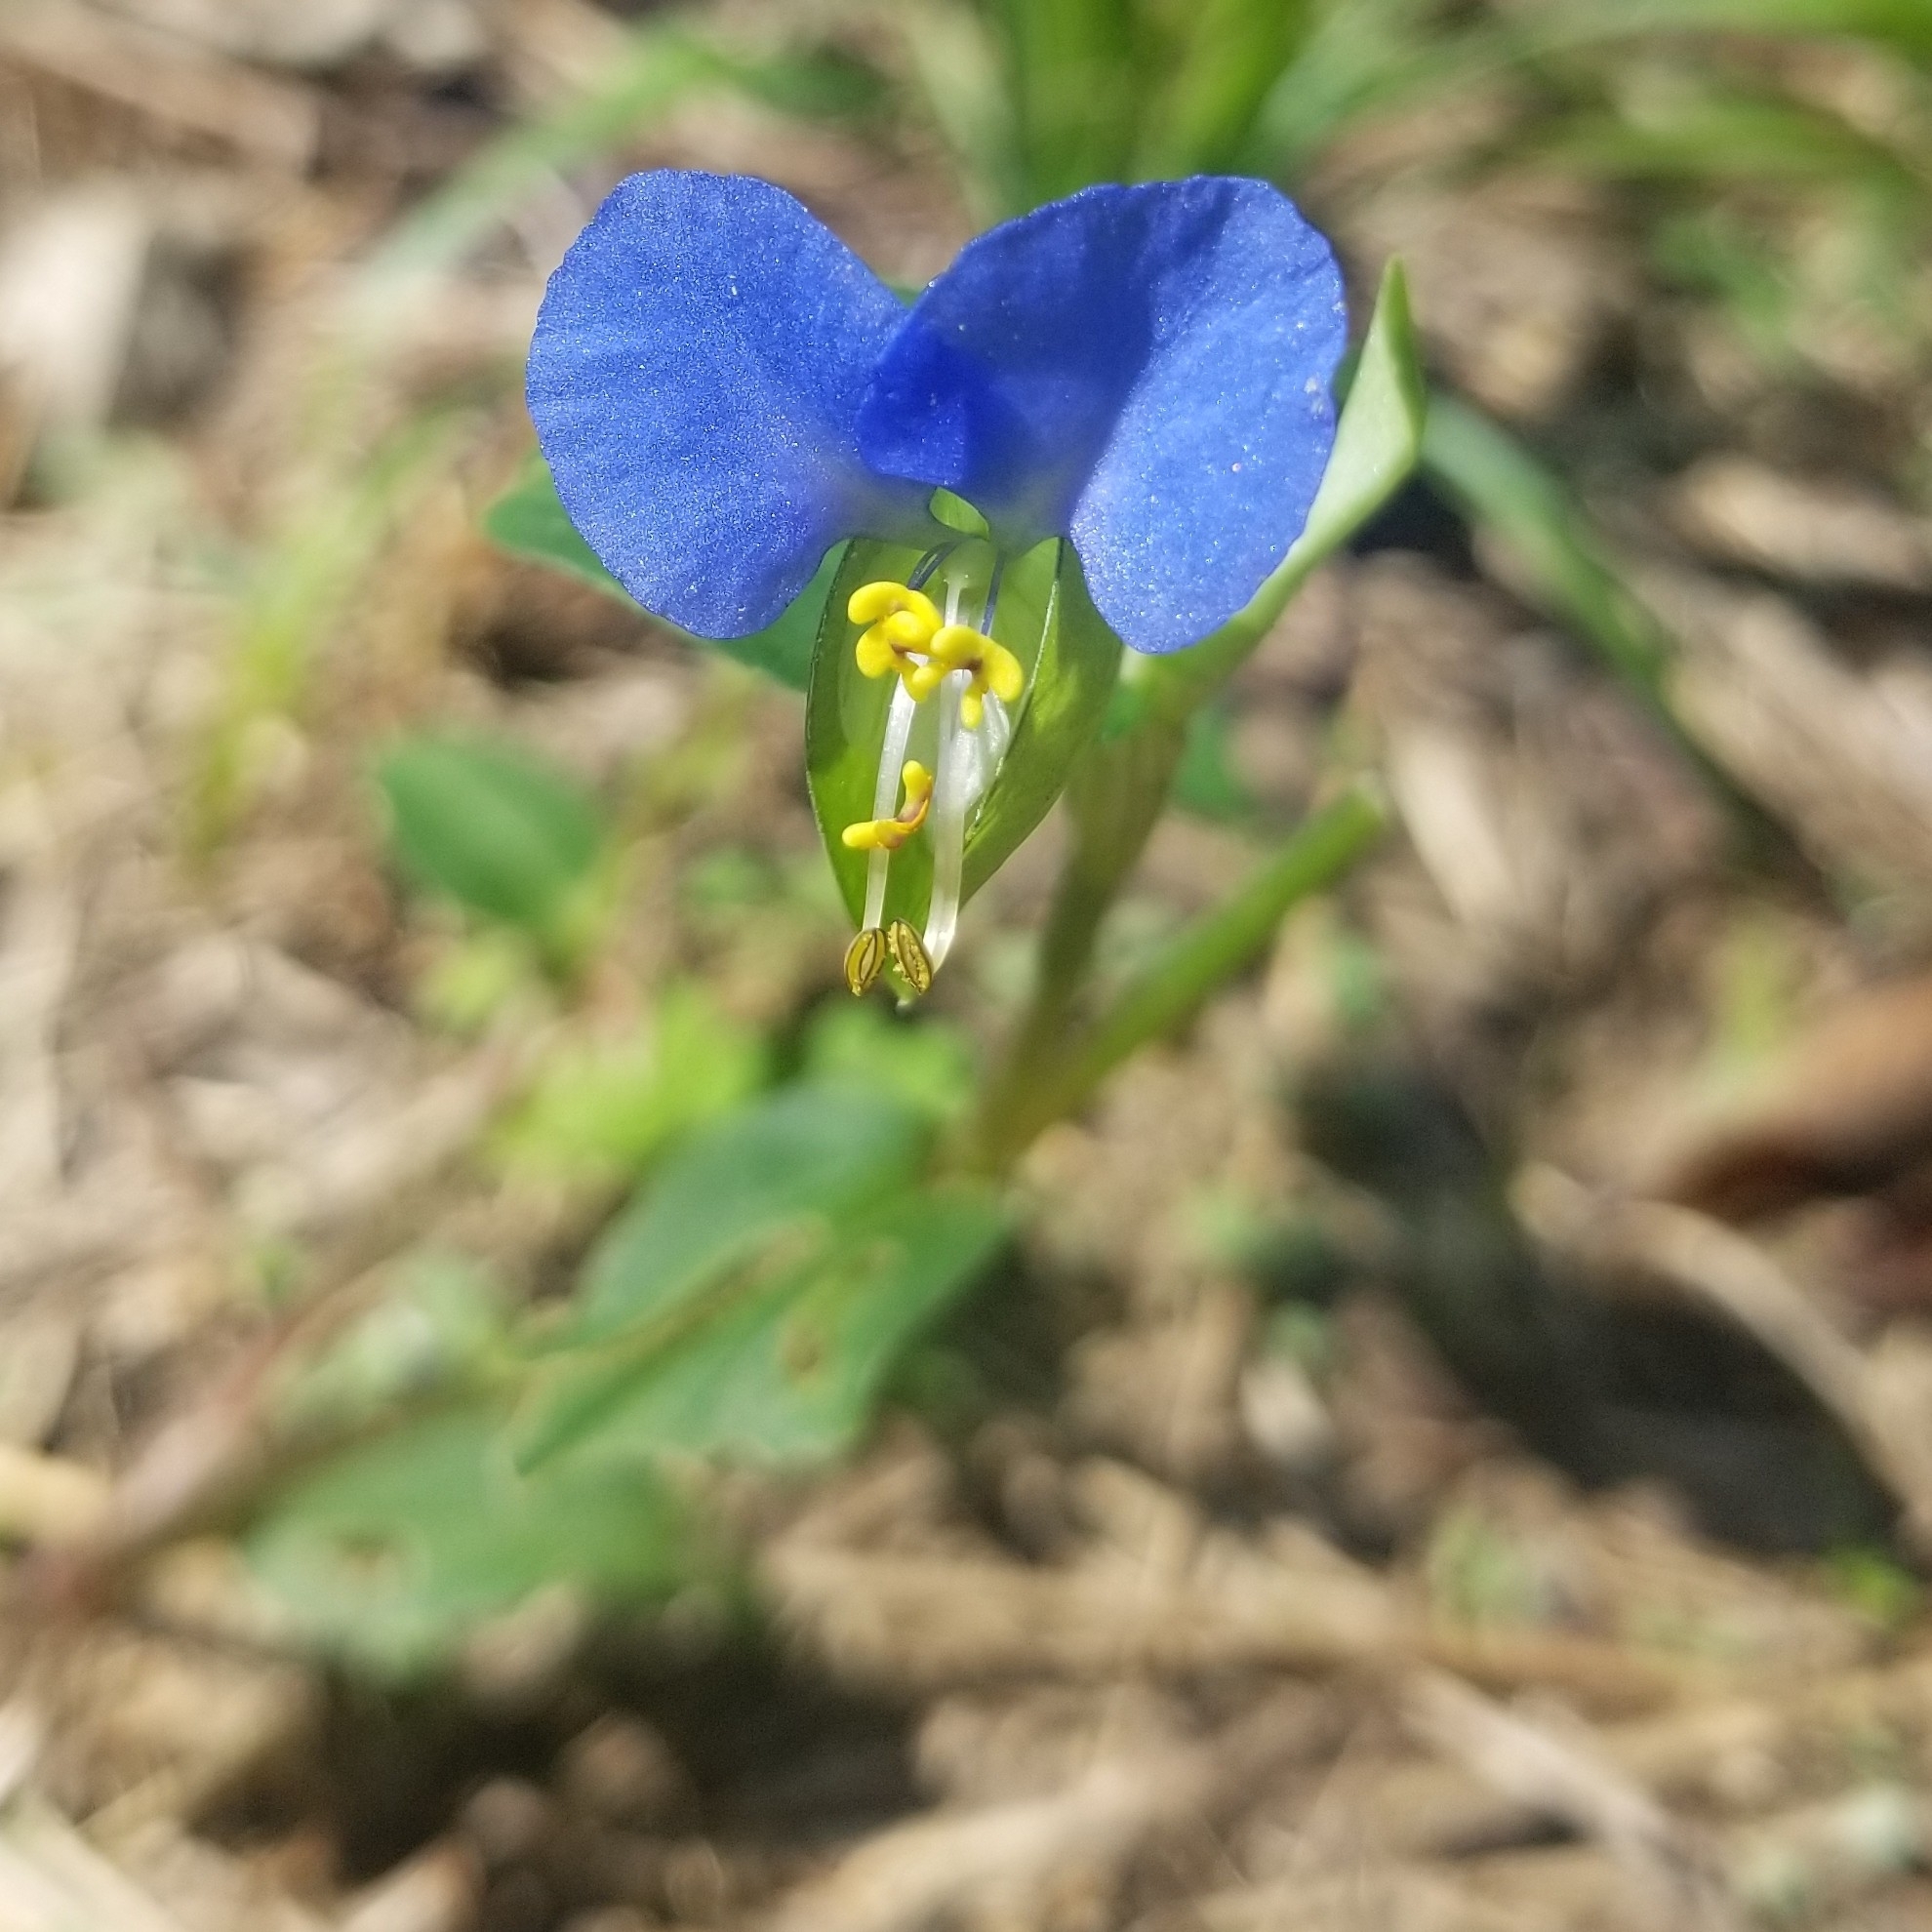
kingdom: Plantae
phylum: Tracheophyta
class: Liliopsida
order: Commelinales
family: Commelinaceae
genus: Commelina
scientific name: Commelina communis
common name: Asiatic dayflower
